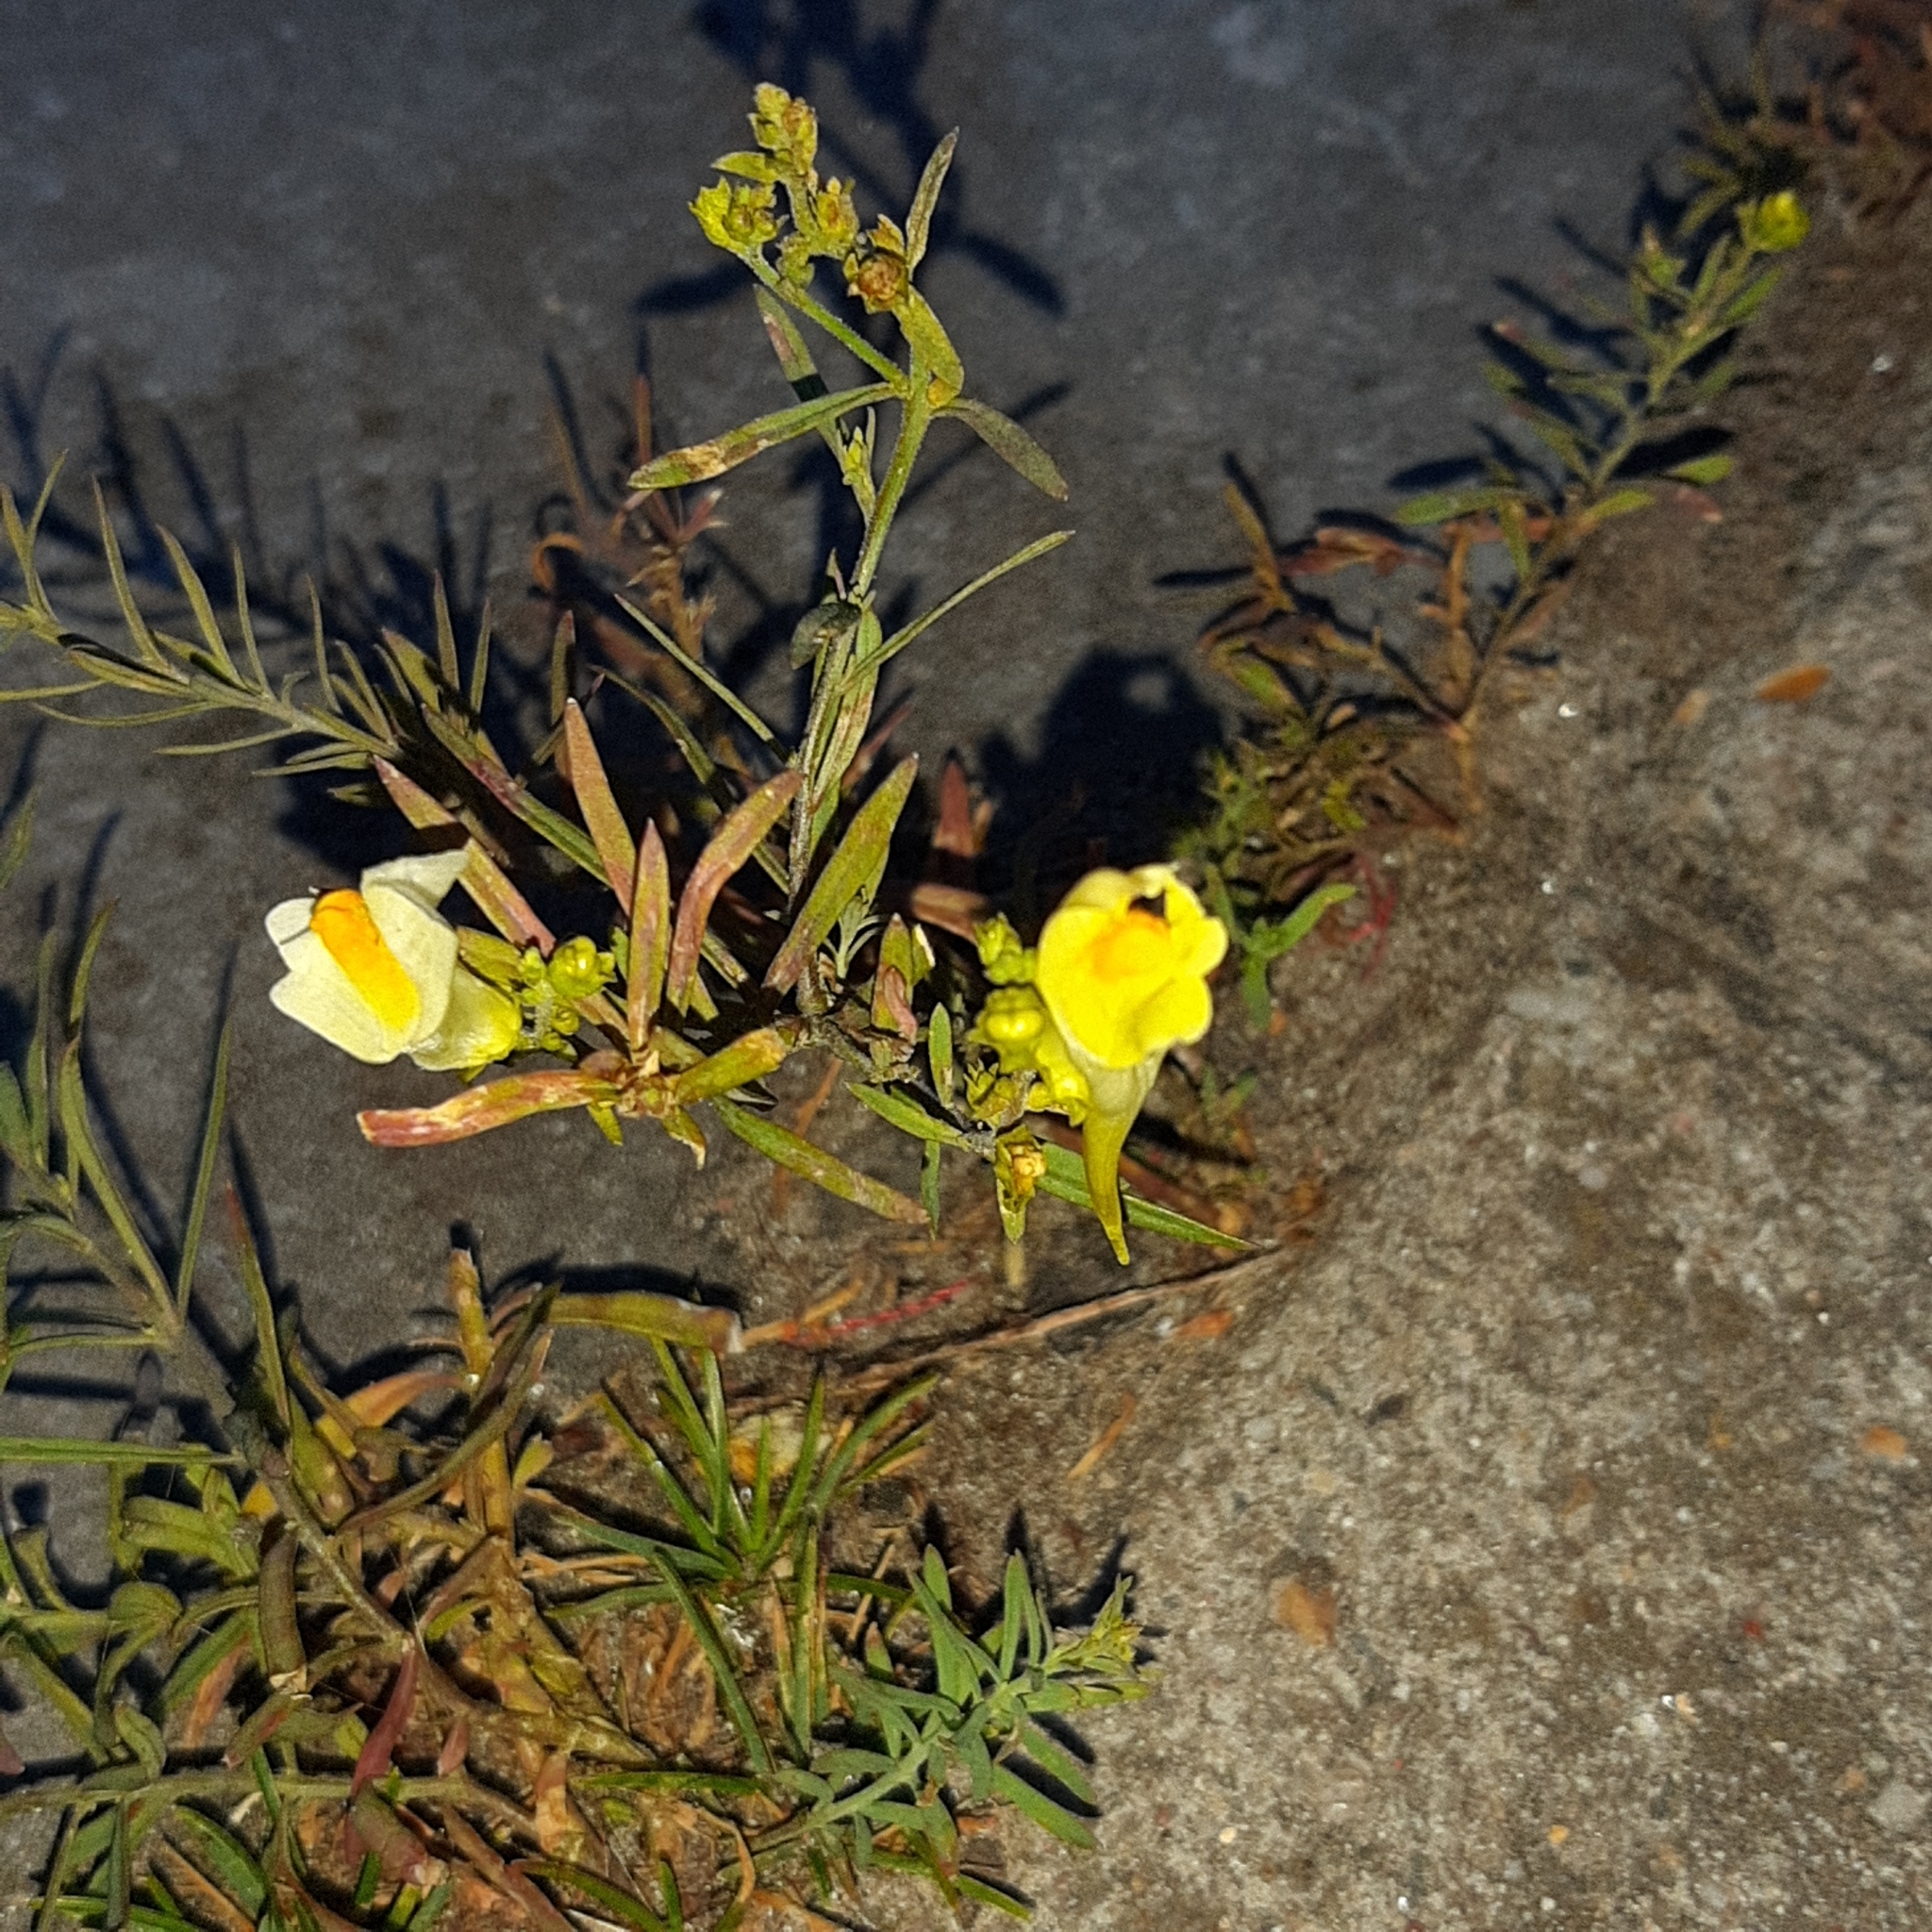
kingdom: Plantae
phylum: Tracheophyta
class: Magnoliopsida
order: Lamiales
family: Plantaginaceae
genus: Linaria
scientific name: Linaria vulgaris
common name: Butter and eggs
